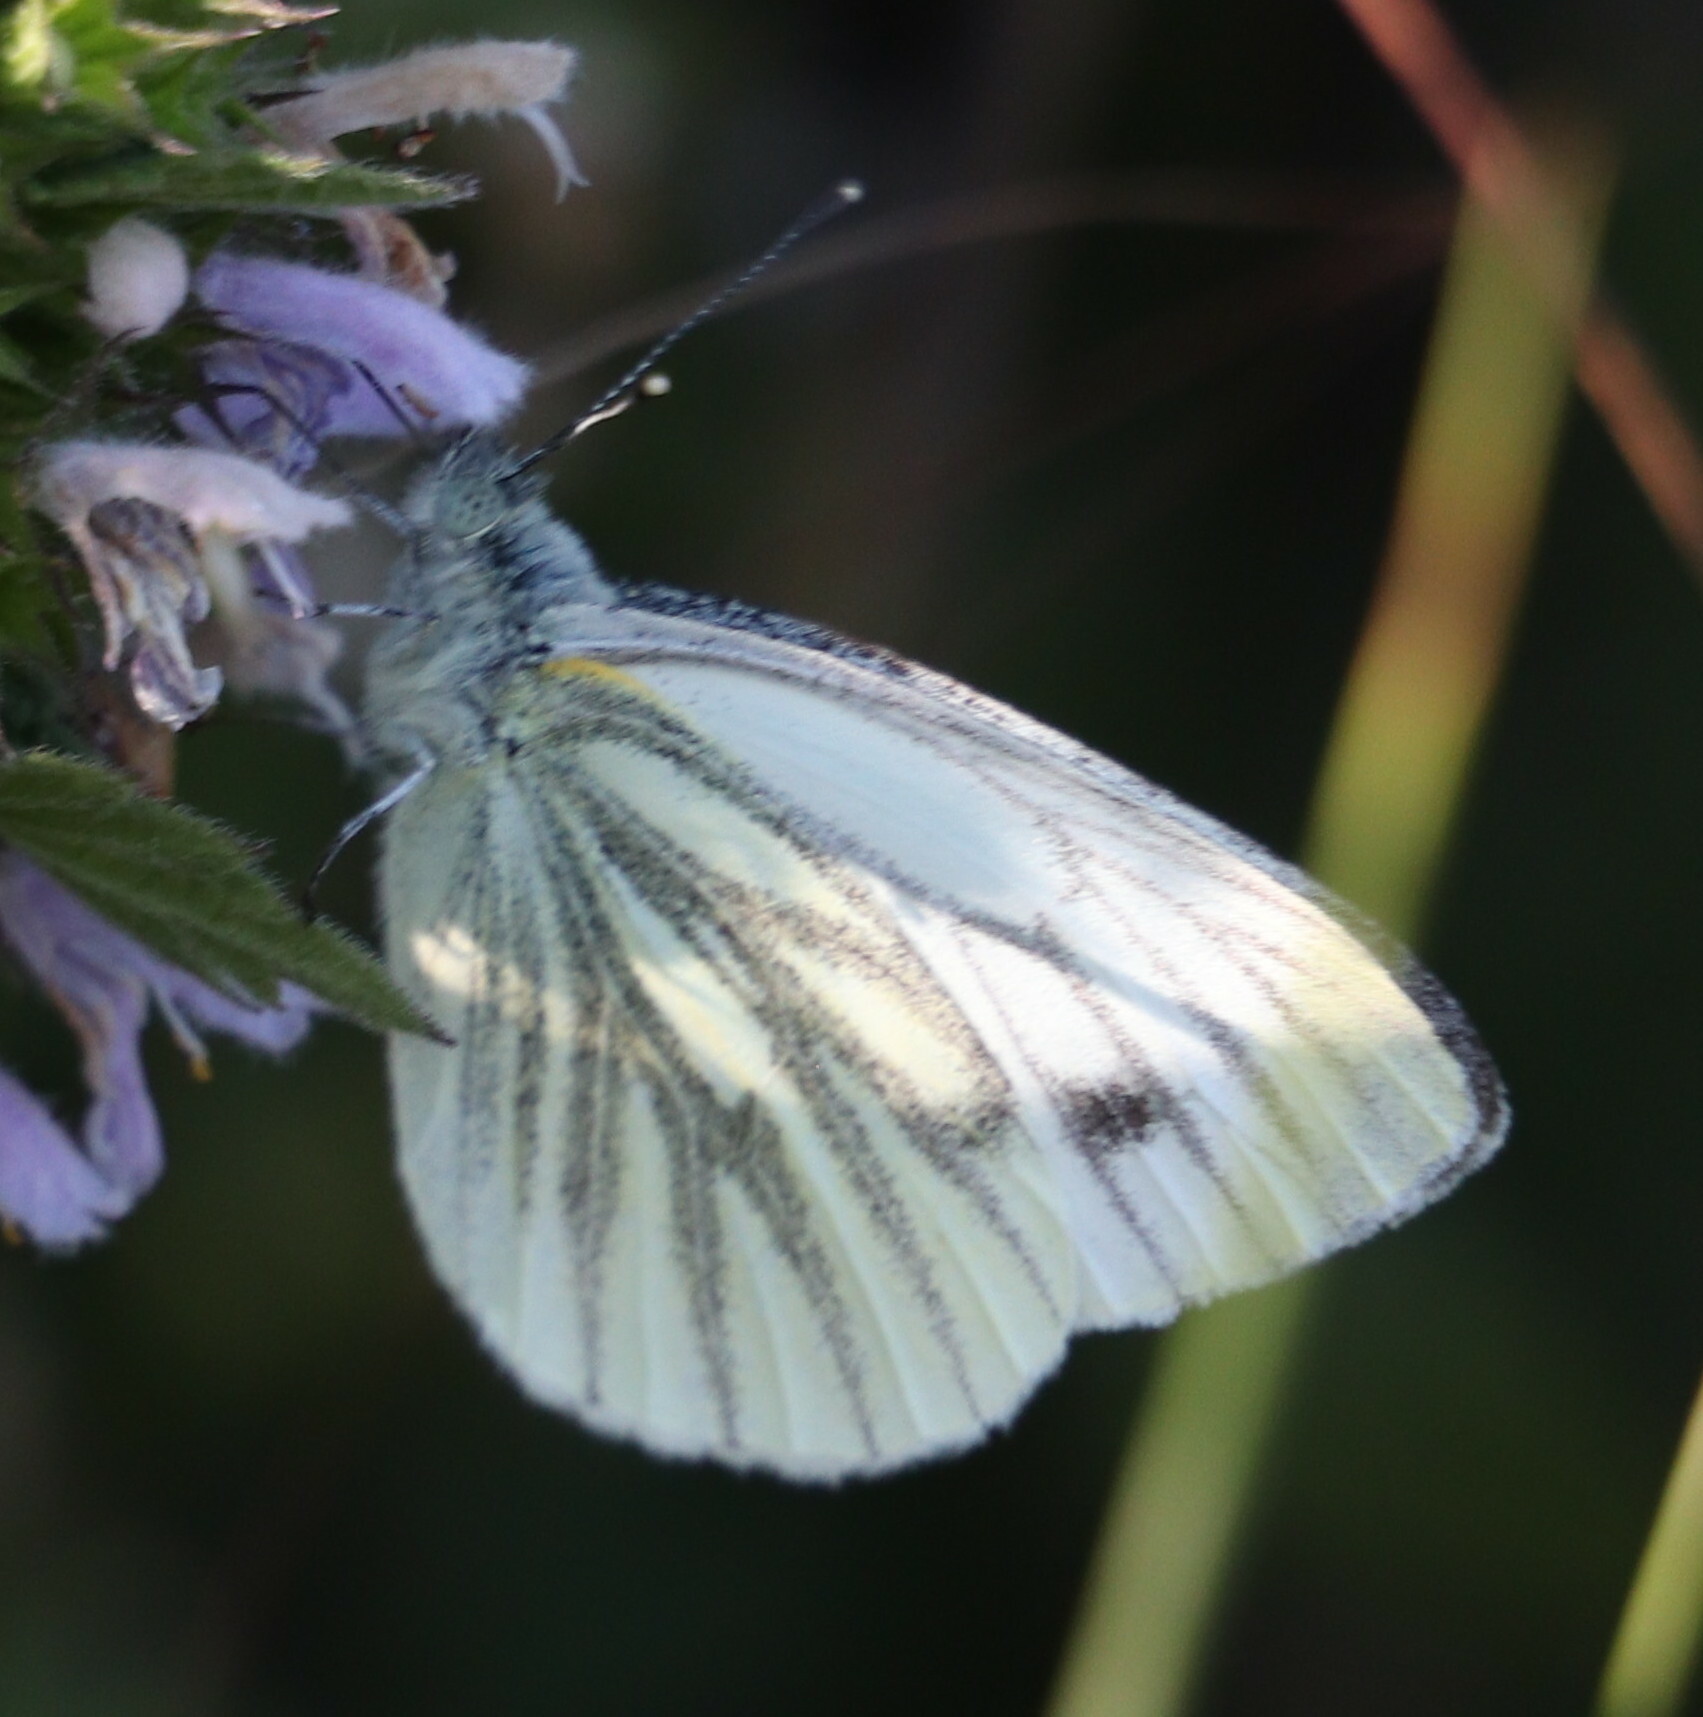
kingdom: Animalia
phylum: Arthropoda
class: Insecta
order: Lepidoptera
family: Pieridae
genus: Pieris
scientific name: Pieris napi
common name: Green-veined white
